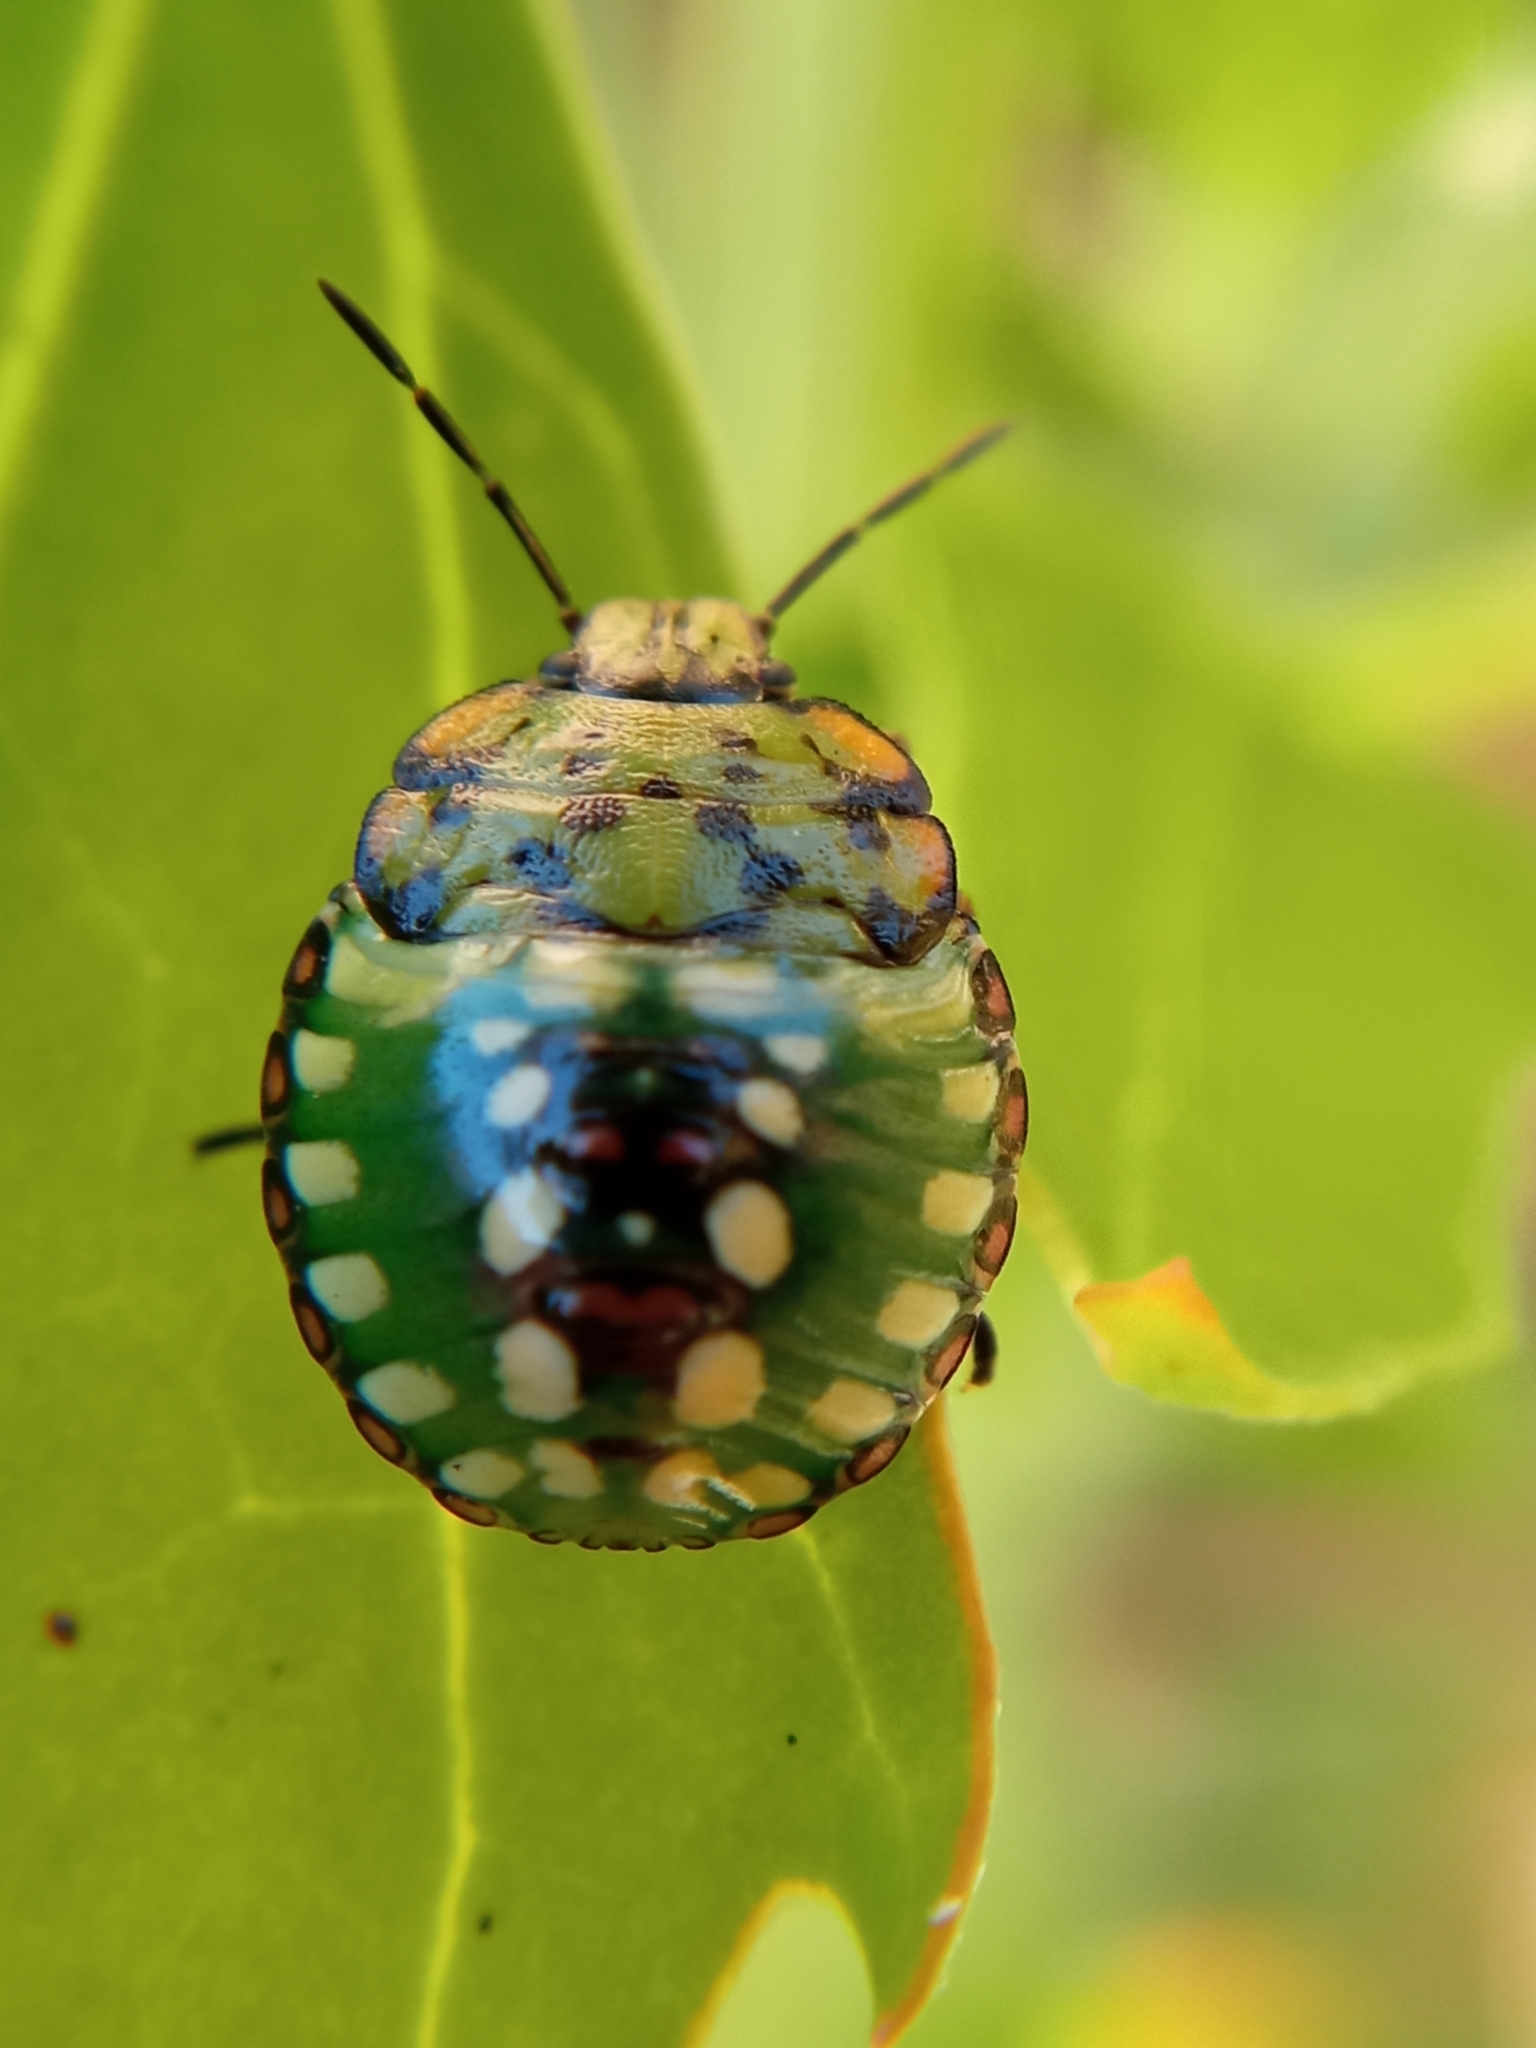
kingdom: Animalia
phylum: Arthropoda
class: Insecta
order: Hemiptera
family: Pentatomidae
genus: Nezara
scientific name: Nezara viridula
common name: Southern green stink bug
